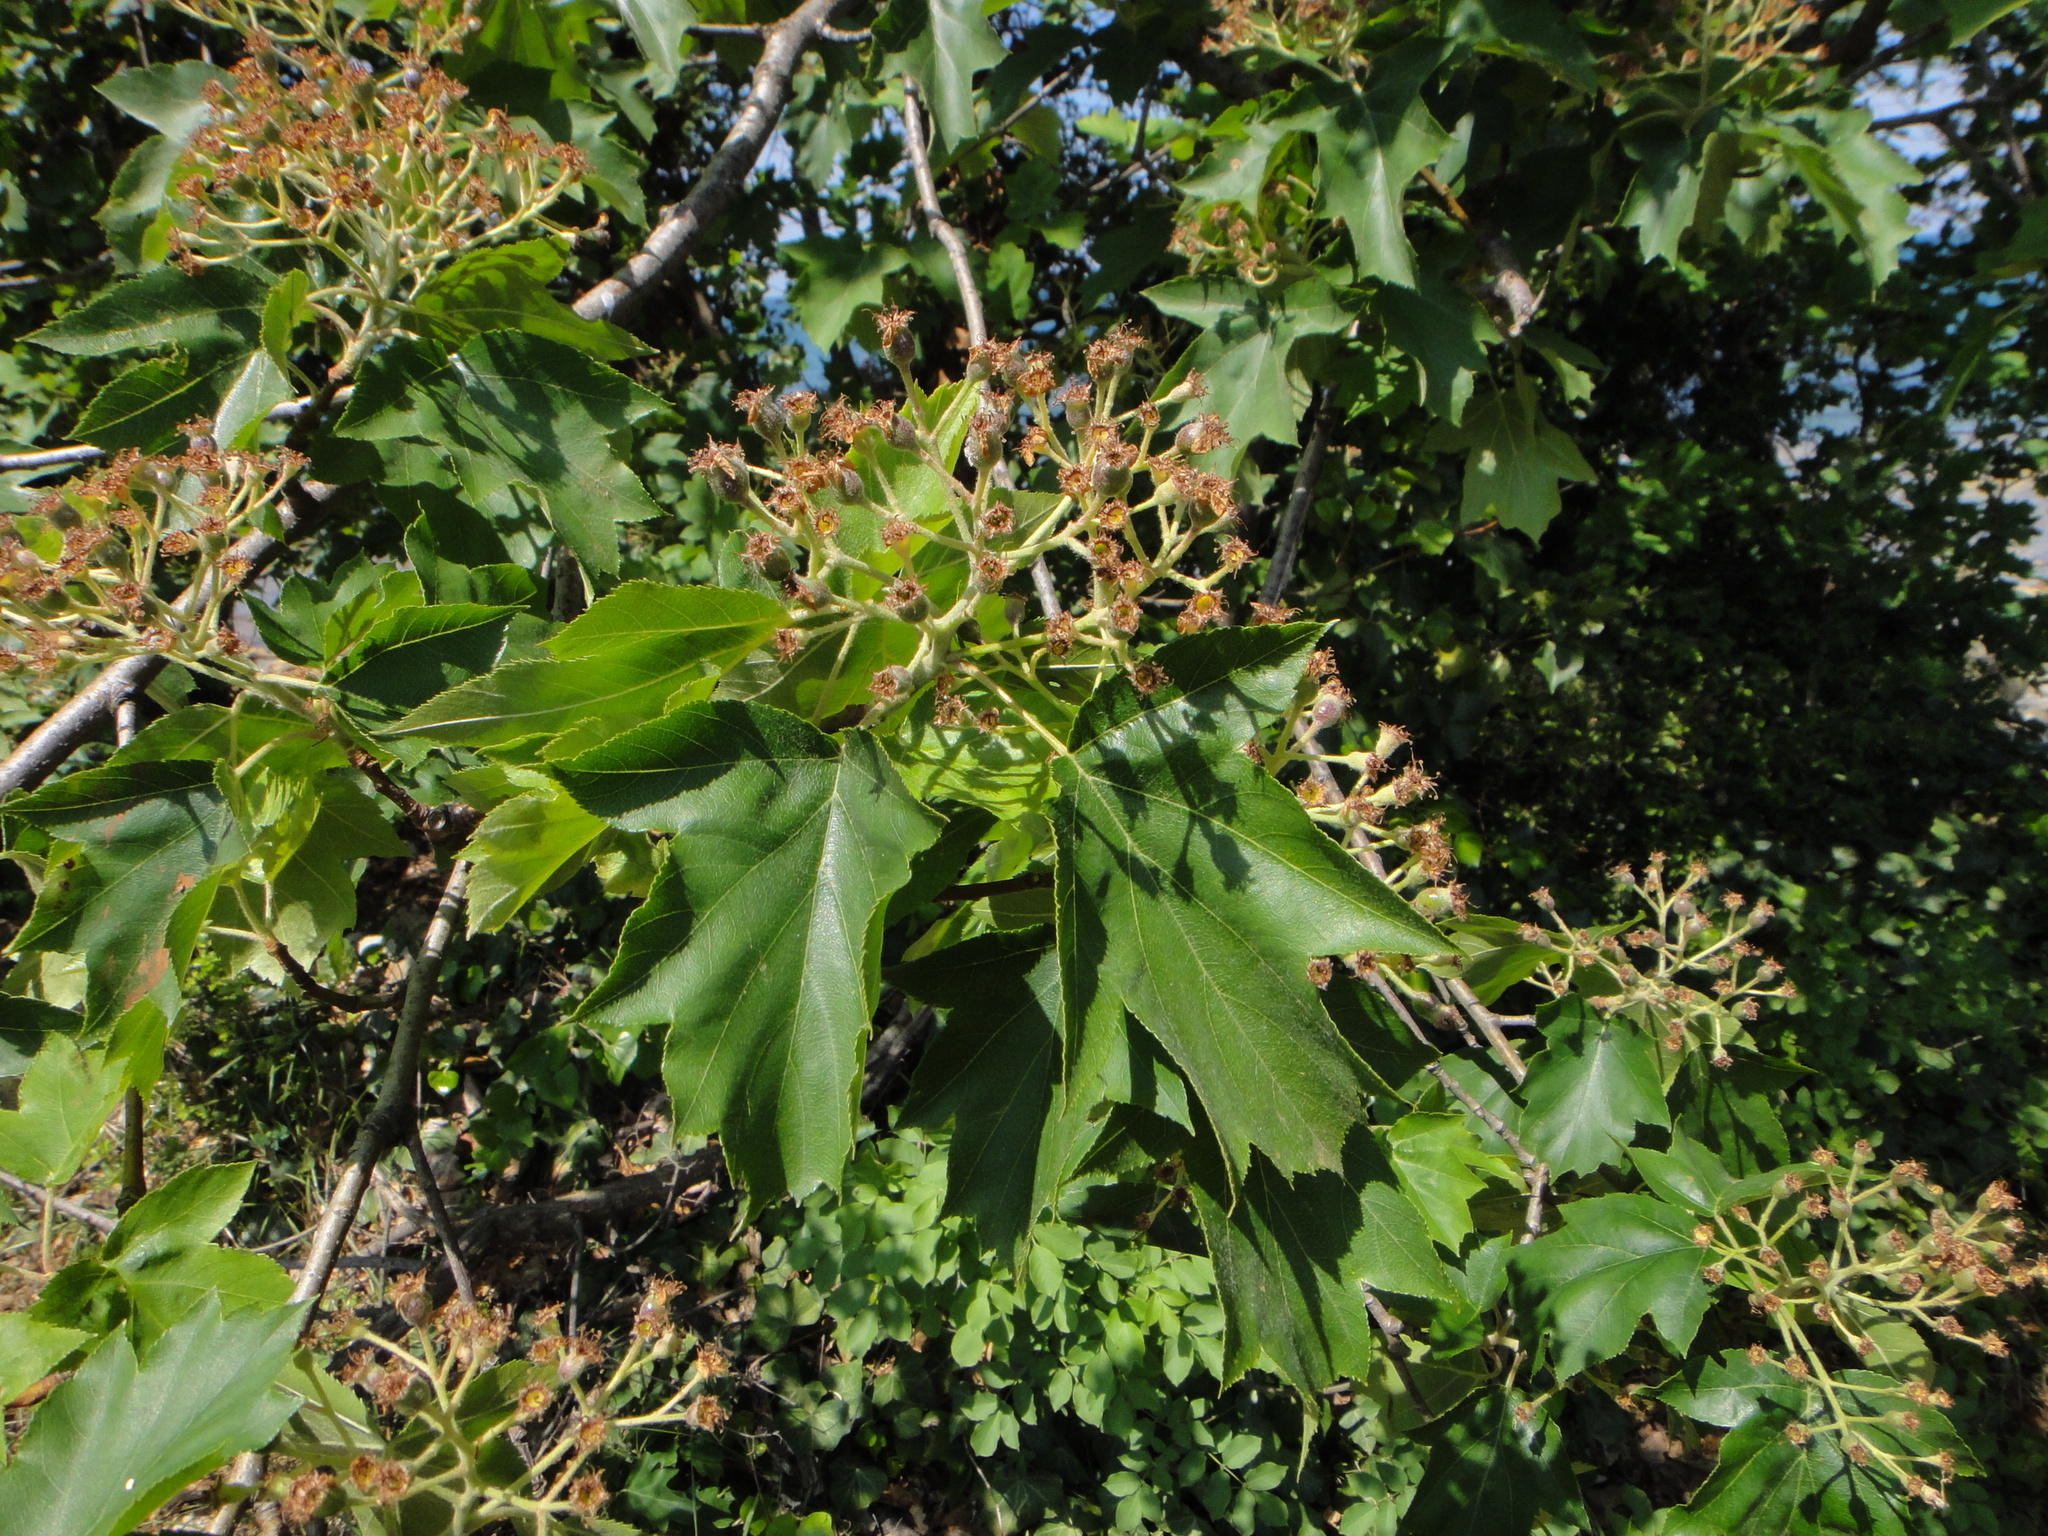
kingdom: Plantae
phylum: Tracheophyta
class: Magnoliopsida
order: Rosales
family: Rosaceae
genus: Torminalis
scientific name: Torminalis glaberrima
